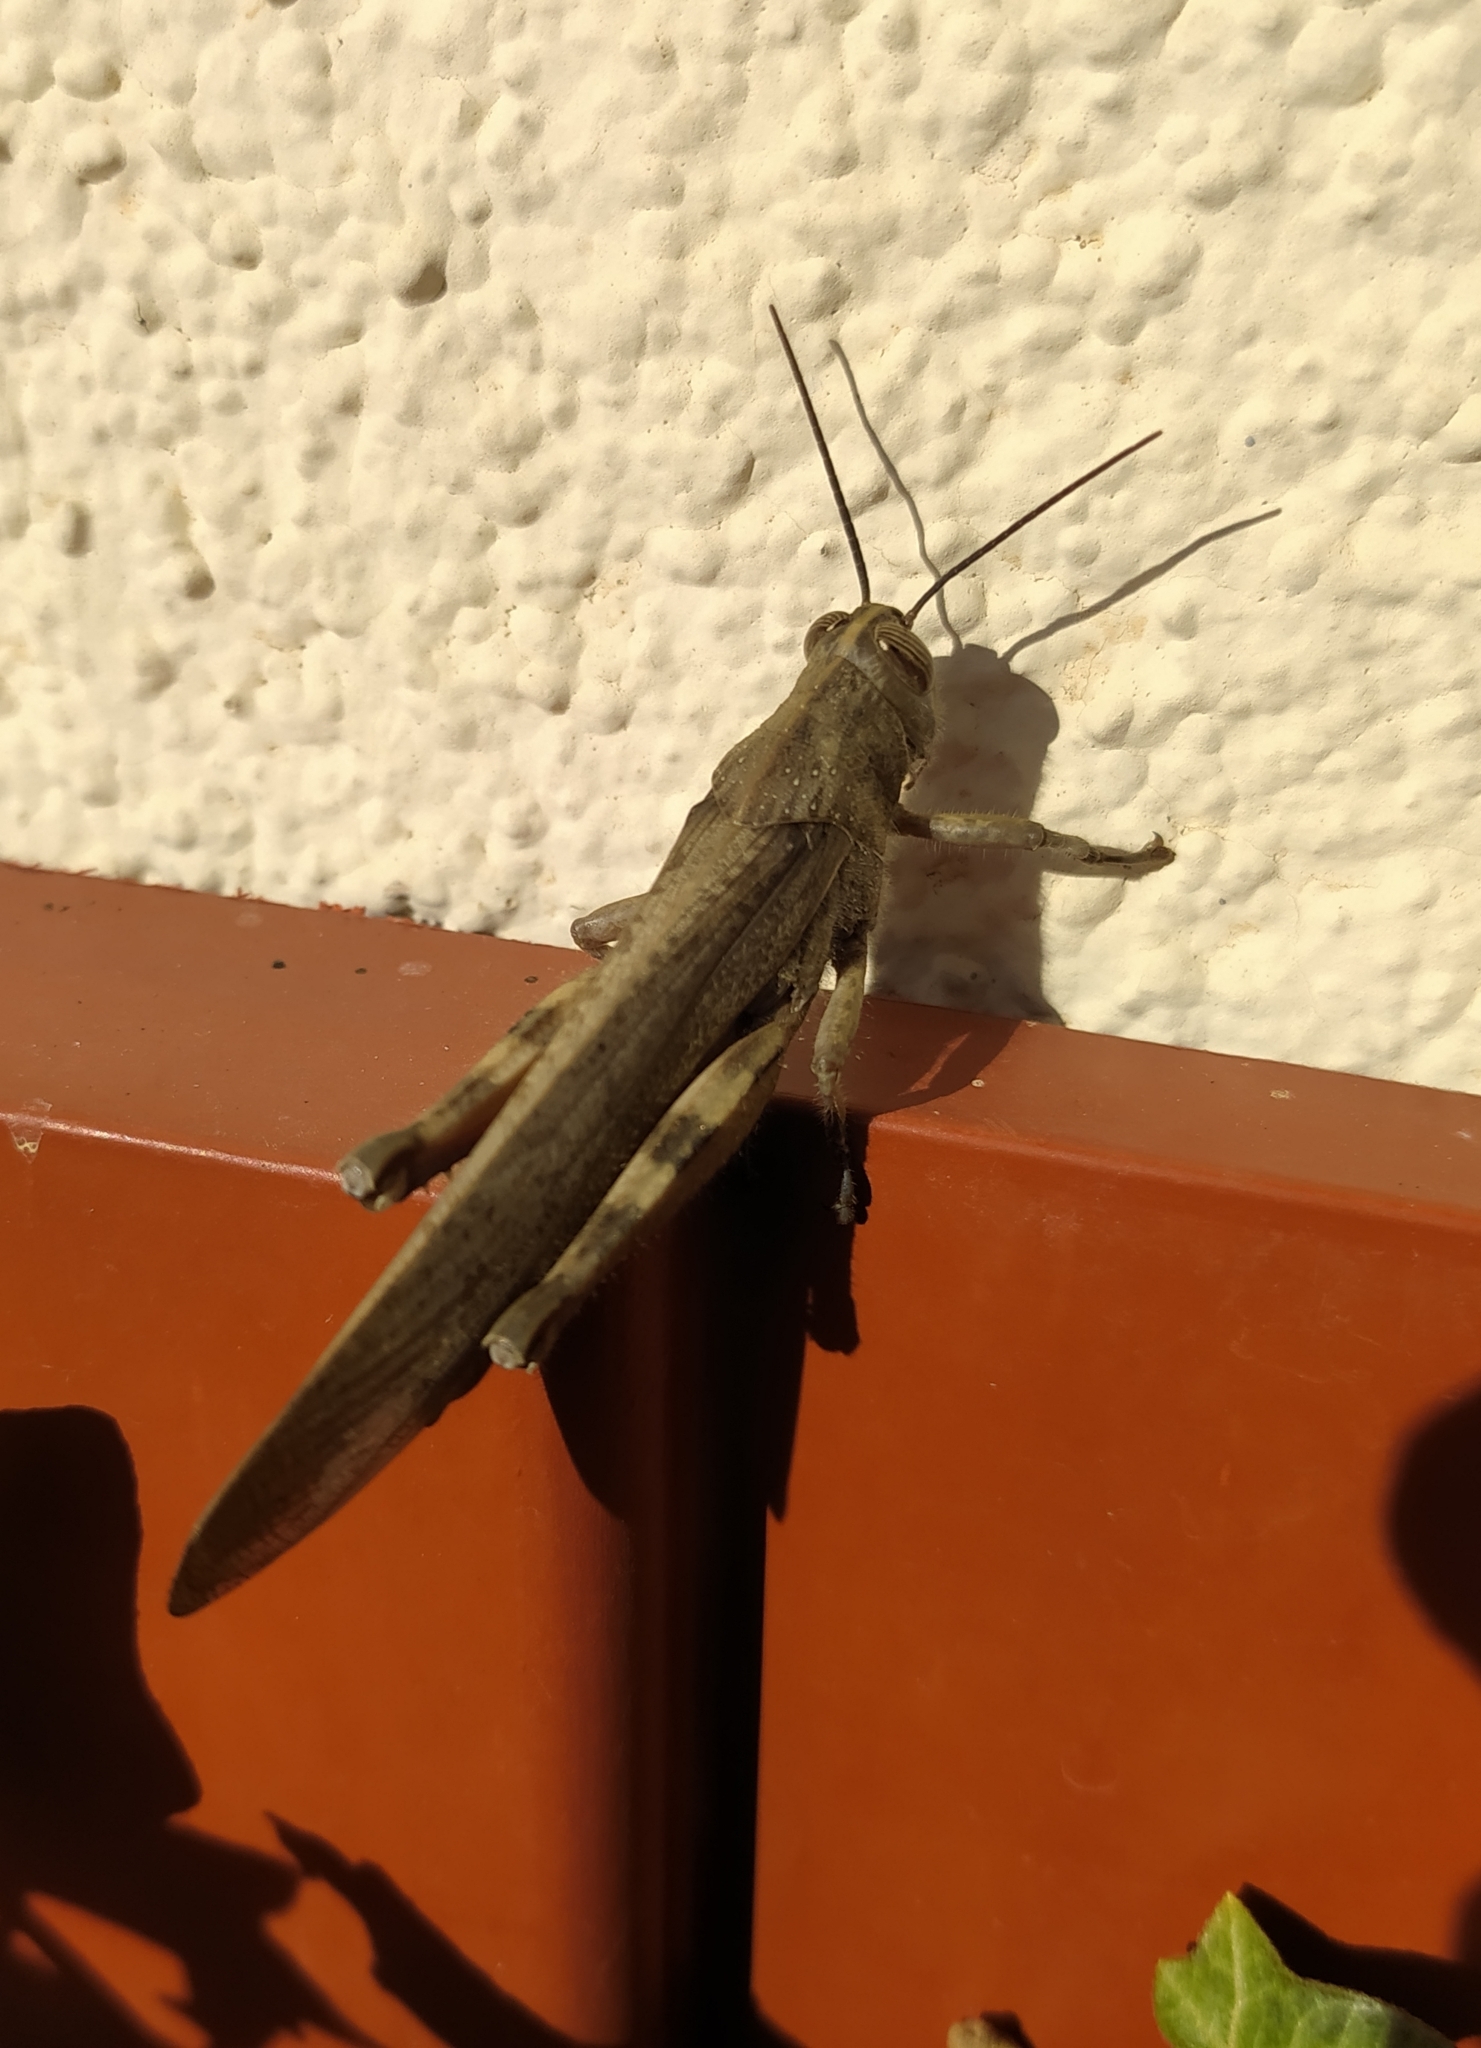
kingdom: Animalia
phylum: Arthropoda
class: Insecta
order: Orthoptera
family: Acrididae
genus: Anacridium
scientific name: Anacridium aegyptium
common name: Egyptian grasshopper
